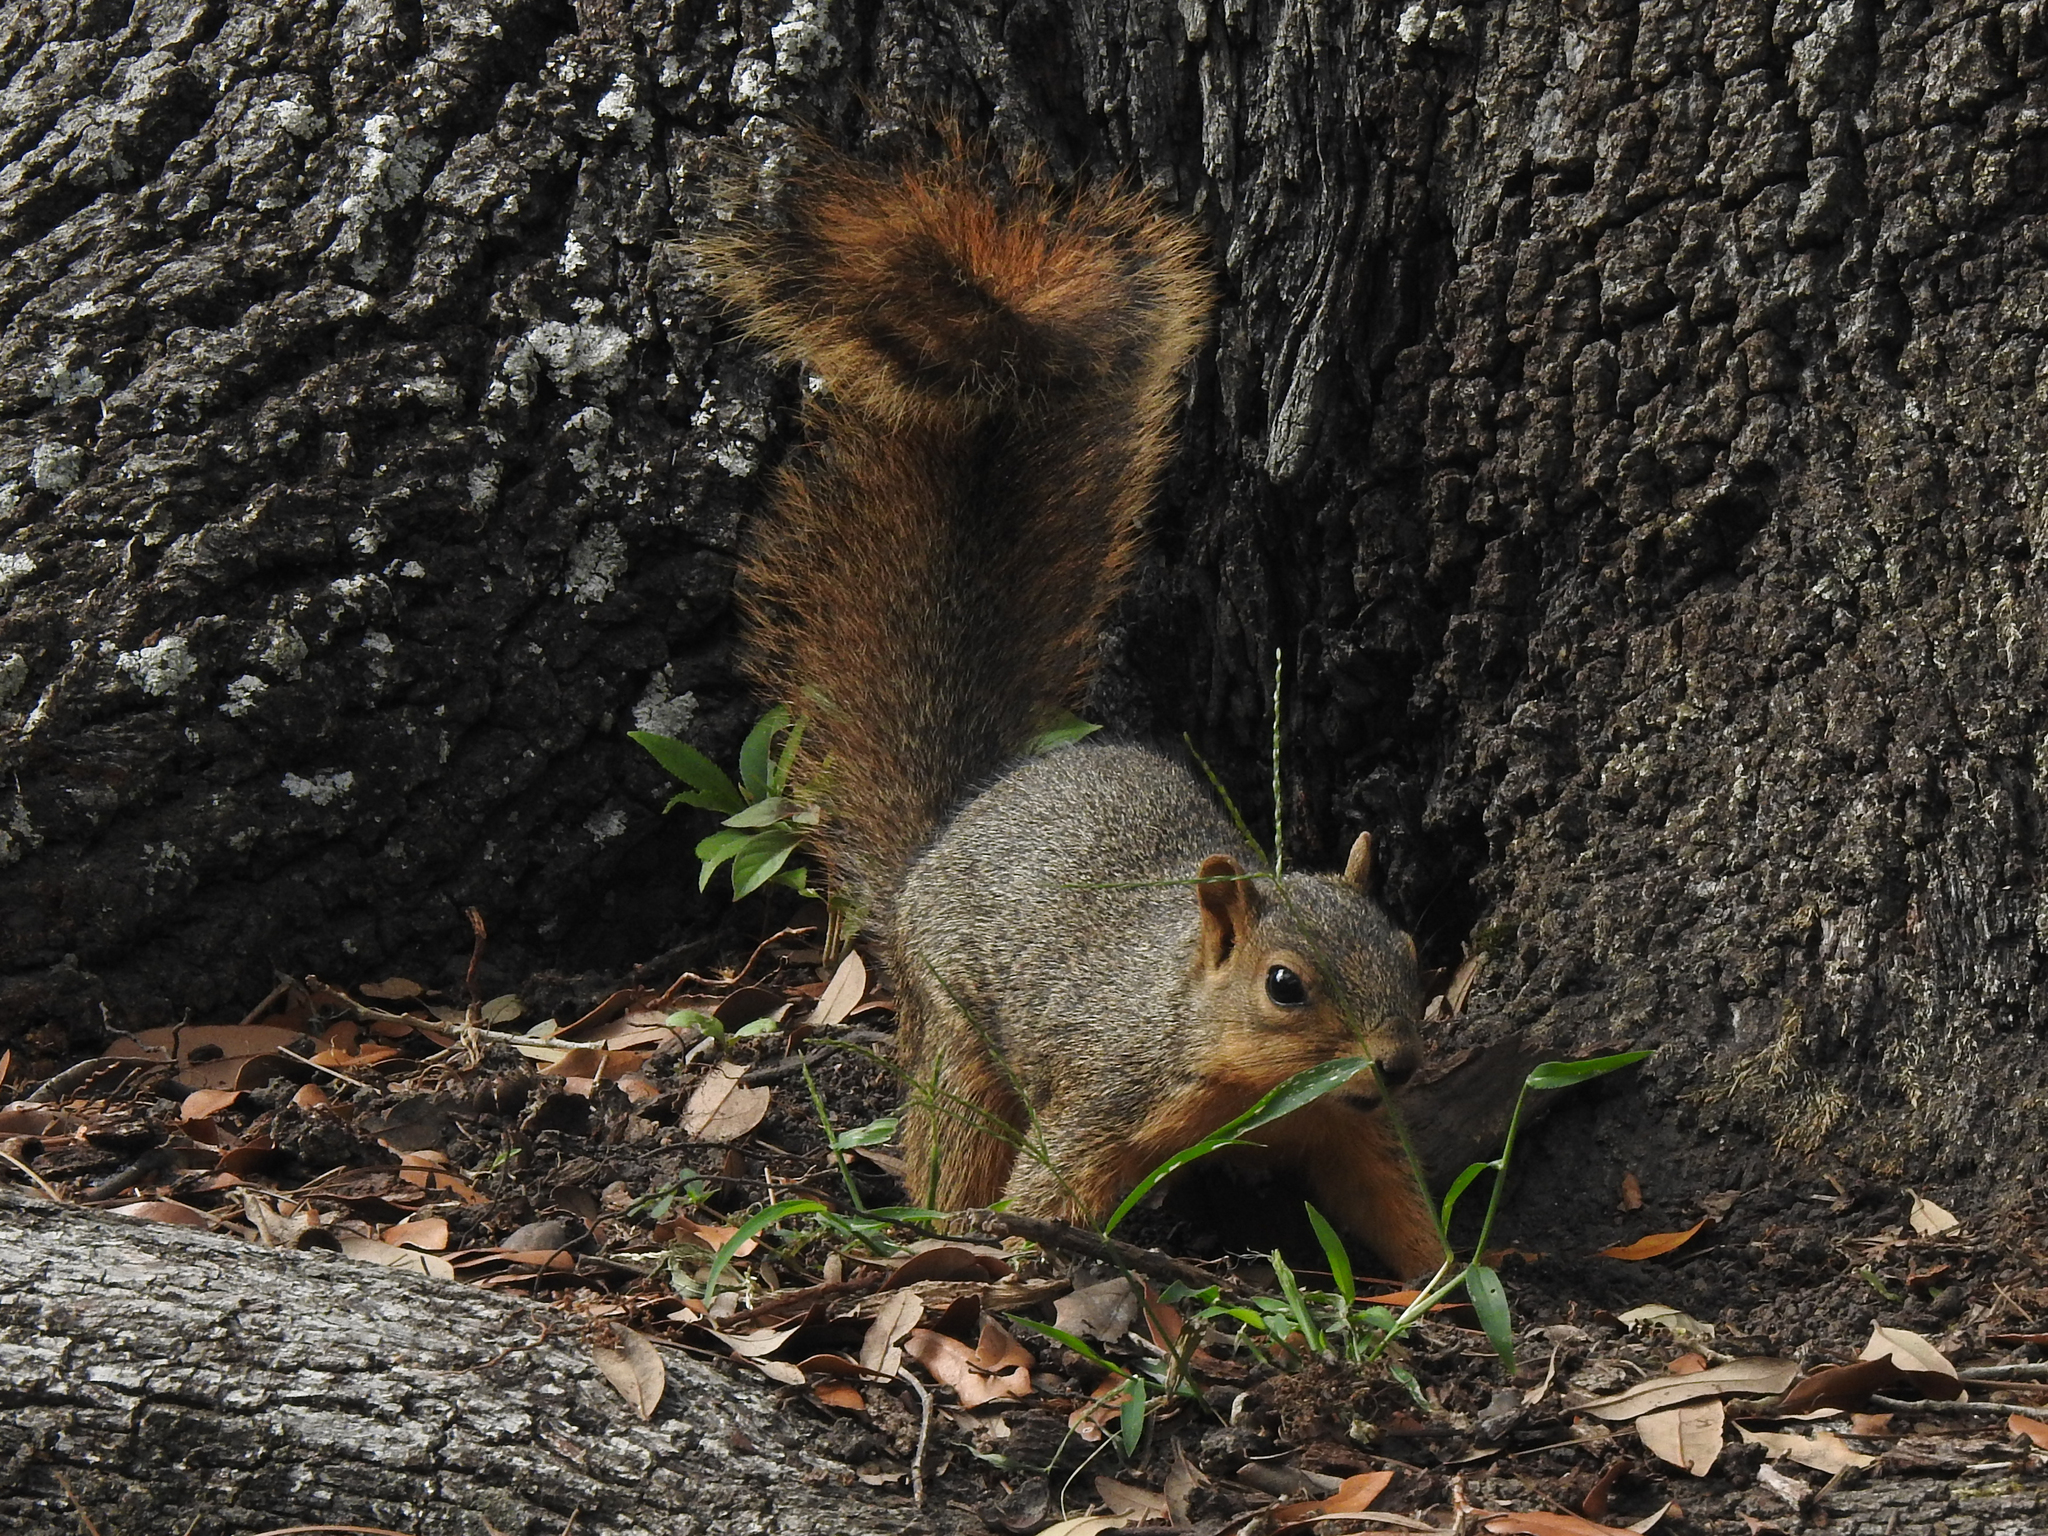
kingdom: Animalia
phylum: Chordata
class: Mammalia
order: Rodentia
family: Sciuridae
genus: Sciurus
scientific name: Sciurus niger
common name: Fox squirrel
